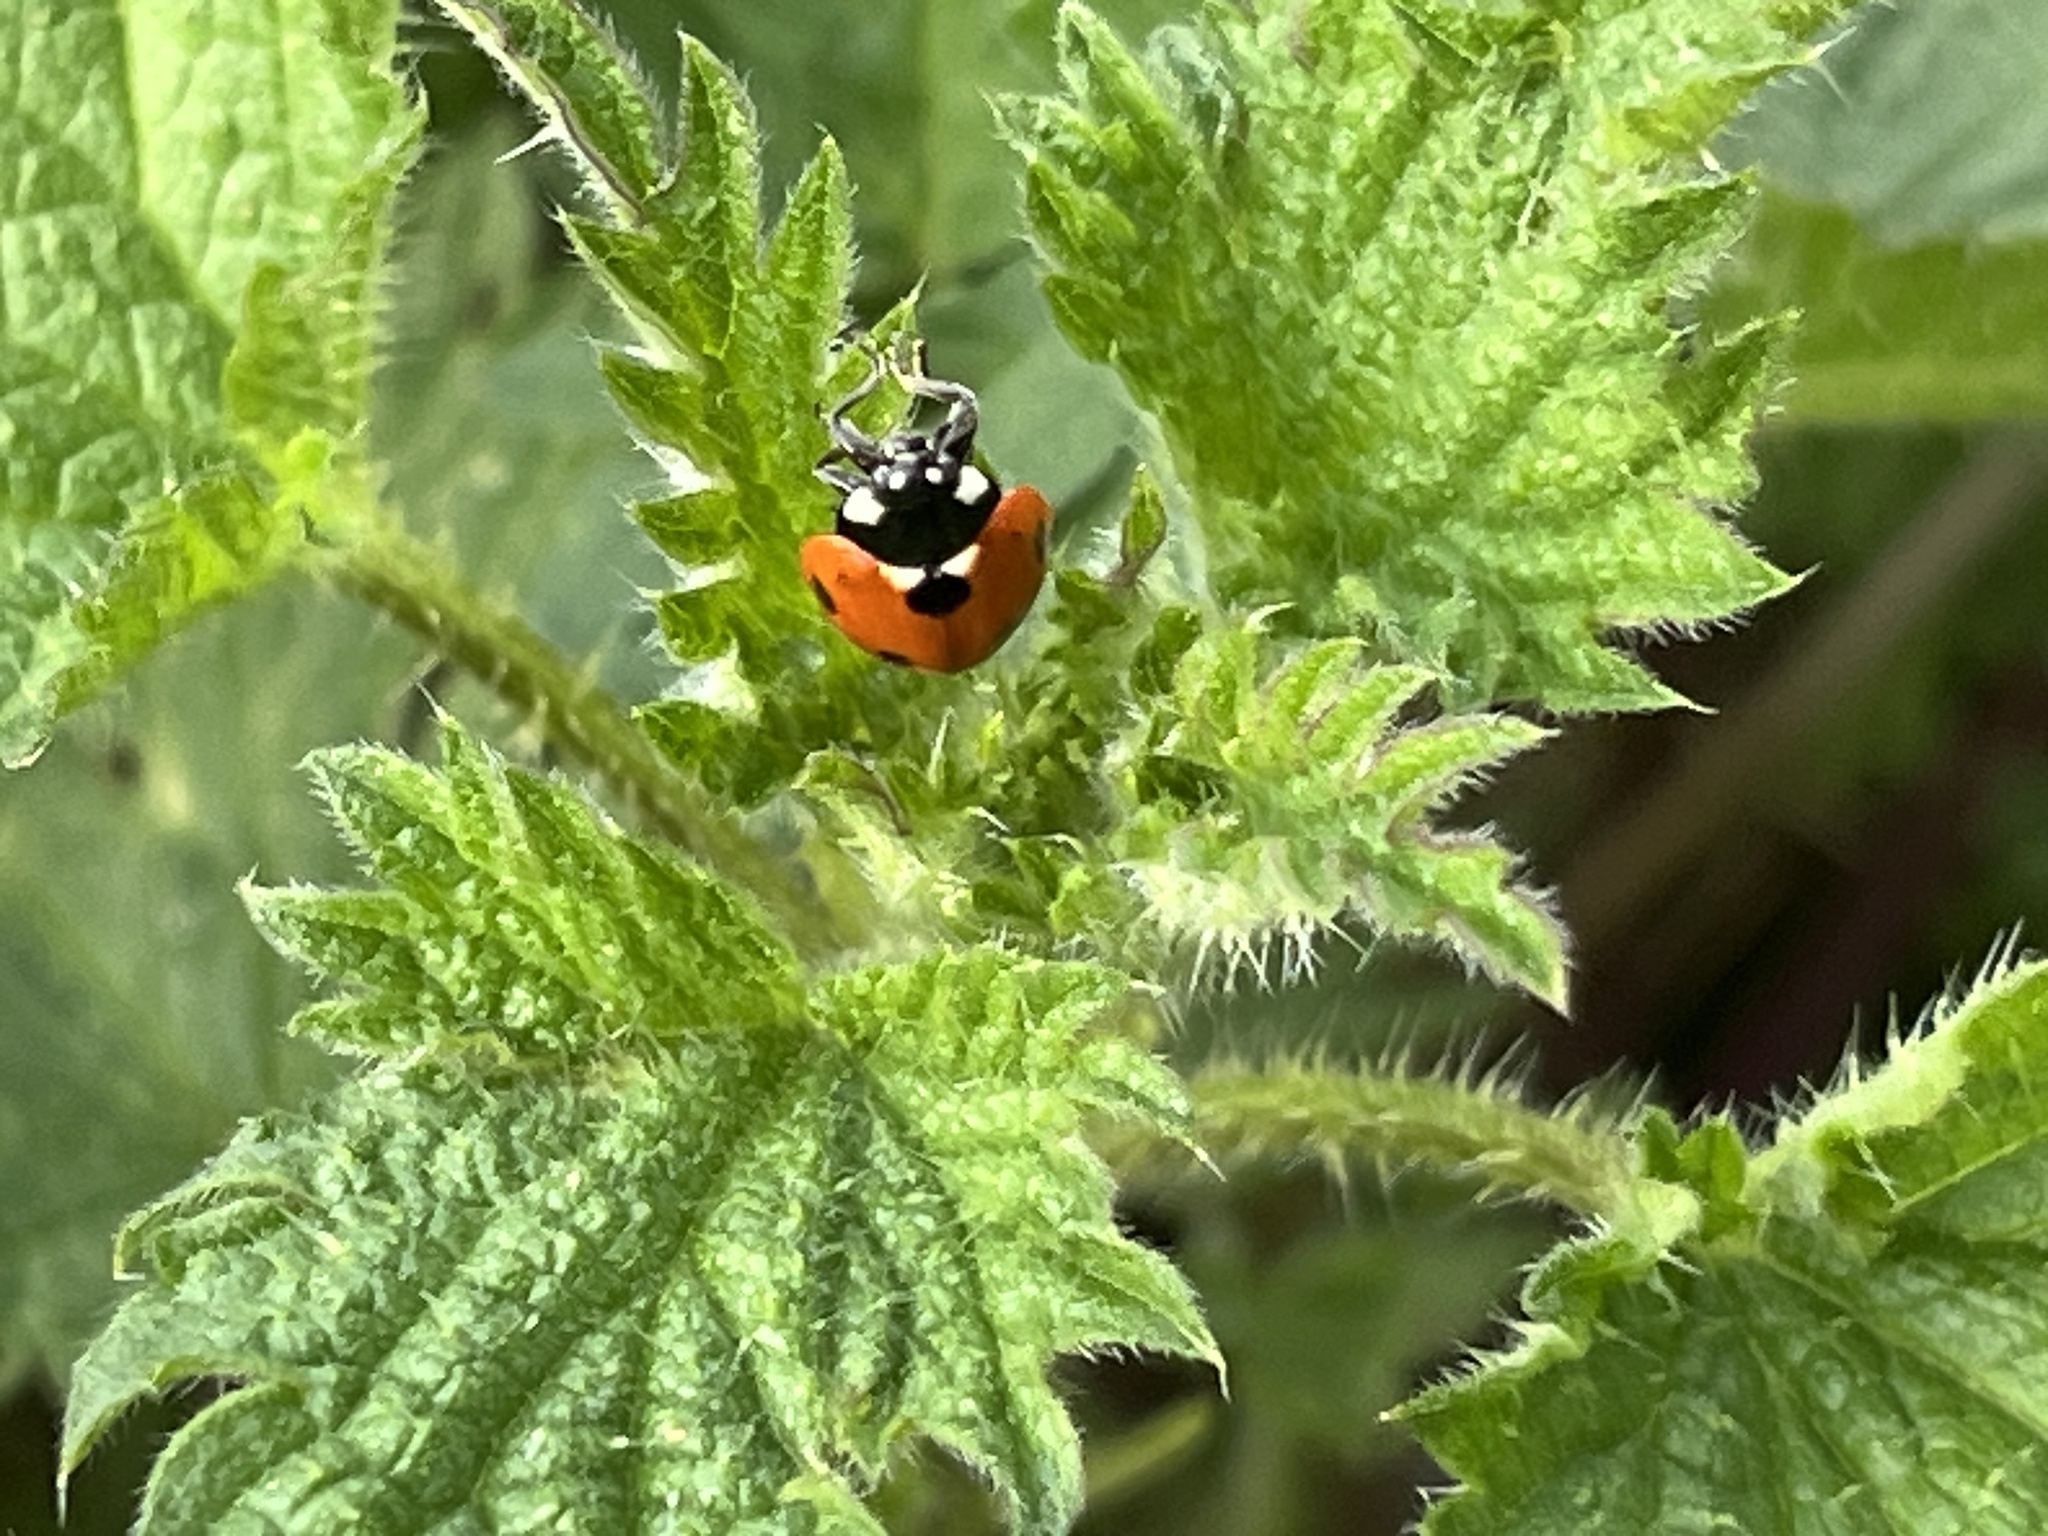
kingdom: Animalia
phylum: Arthropoda
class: Insecta
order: Coleoptera
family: Coccinellidae
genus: Coccinella
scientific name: Coccinella septempunctata
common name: Sevenspotted lady beetle
